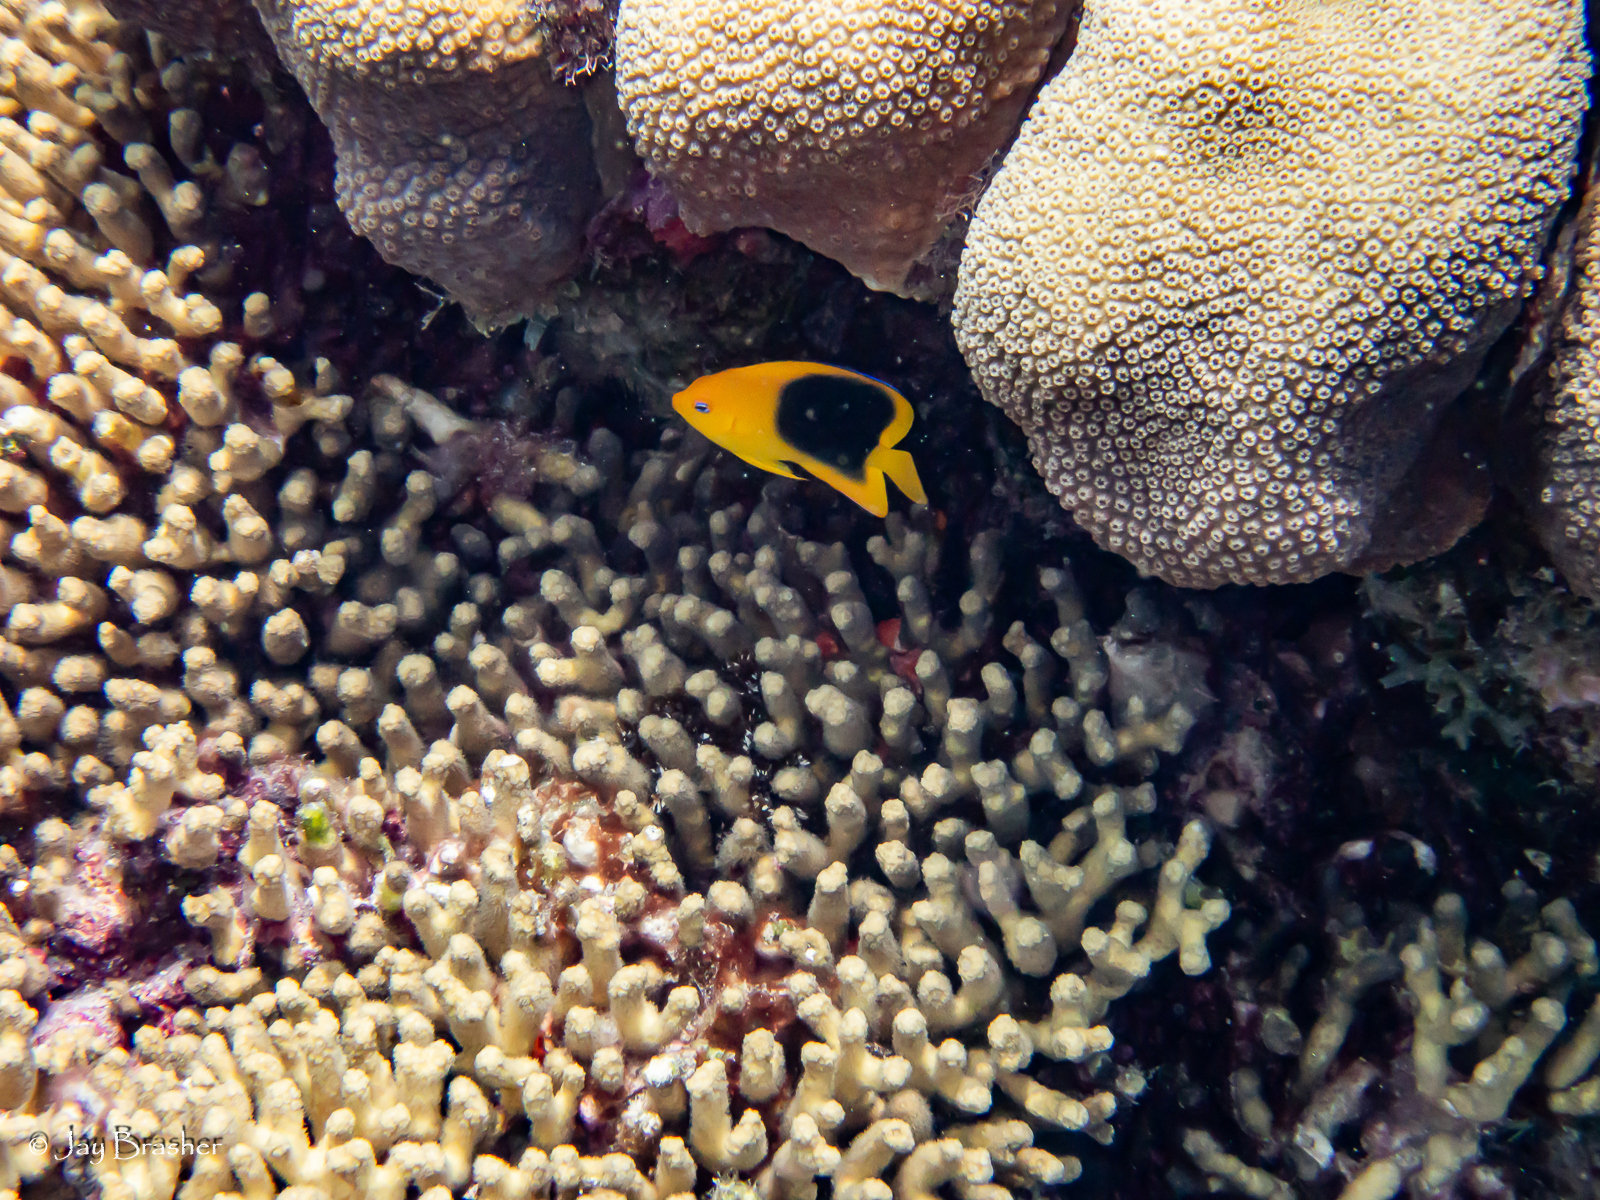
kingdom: Animalia
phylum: Chordata
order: Perciformes
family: Pomacanthidae
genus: Holacanthus
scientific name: Holacanthus tricolor
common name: Rock beauty
